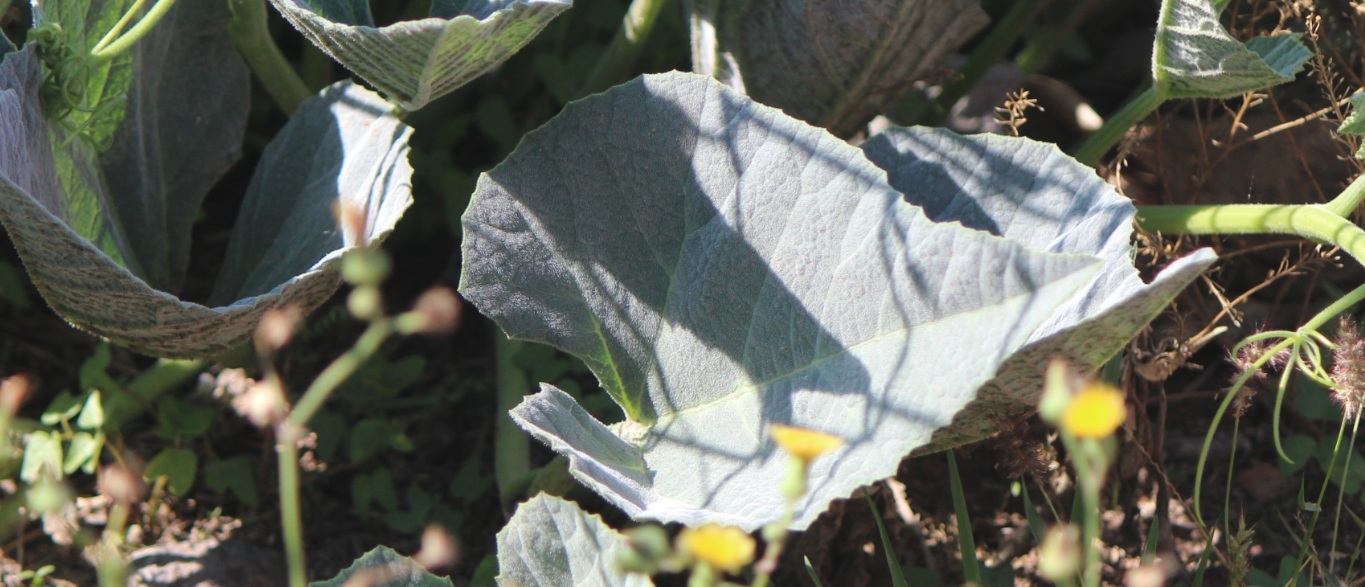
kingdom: Plantae
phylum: Tracheophyta
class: Magnoliopsida
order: Cucurbitales
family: Cucurbitaceae
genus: Cucurbita
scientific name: Cucurbita foetidissima
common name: Buffalo gourd
